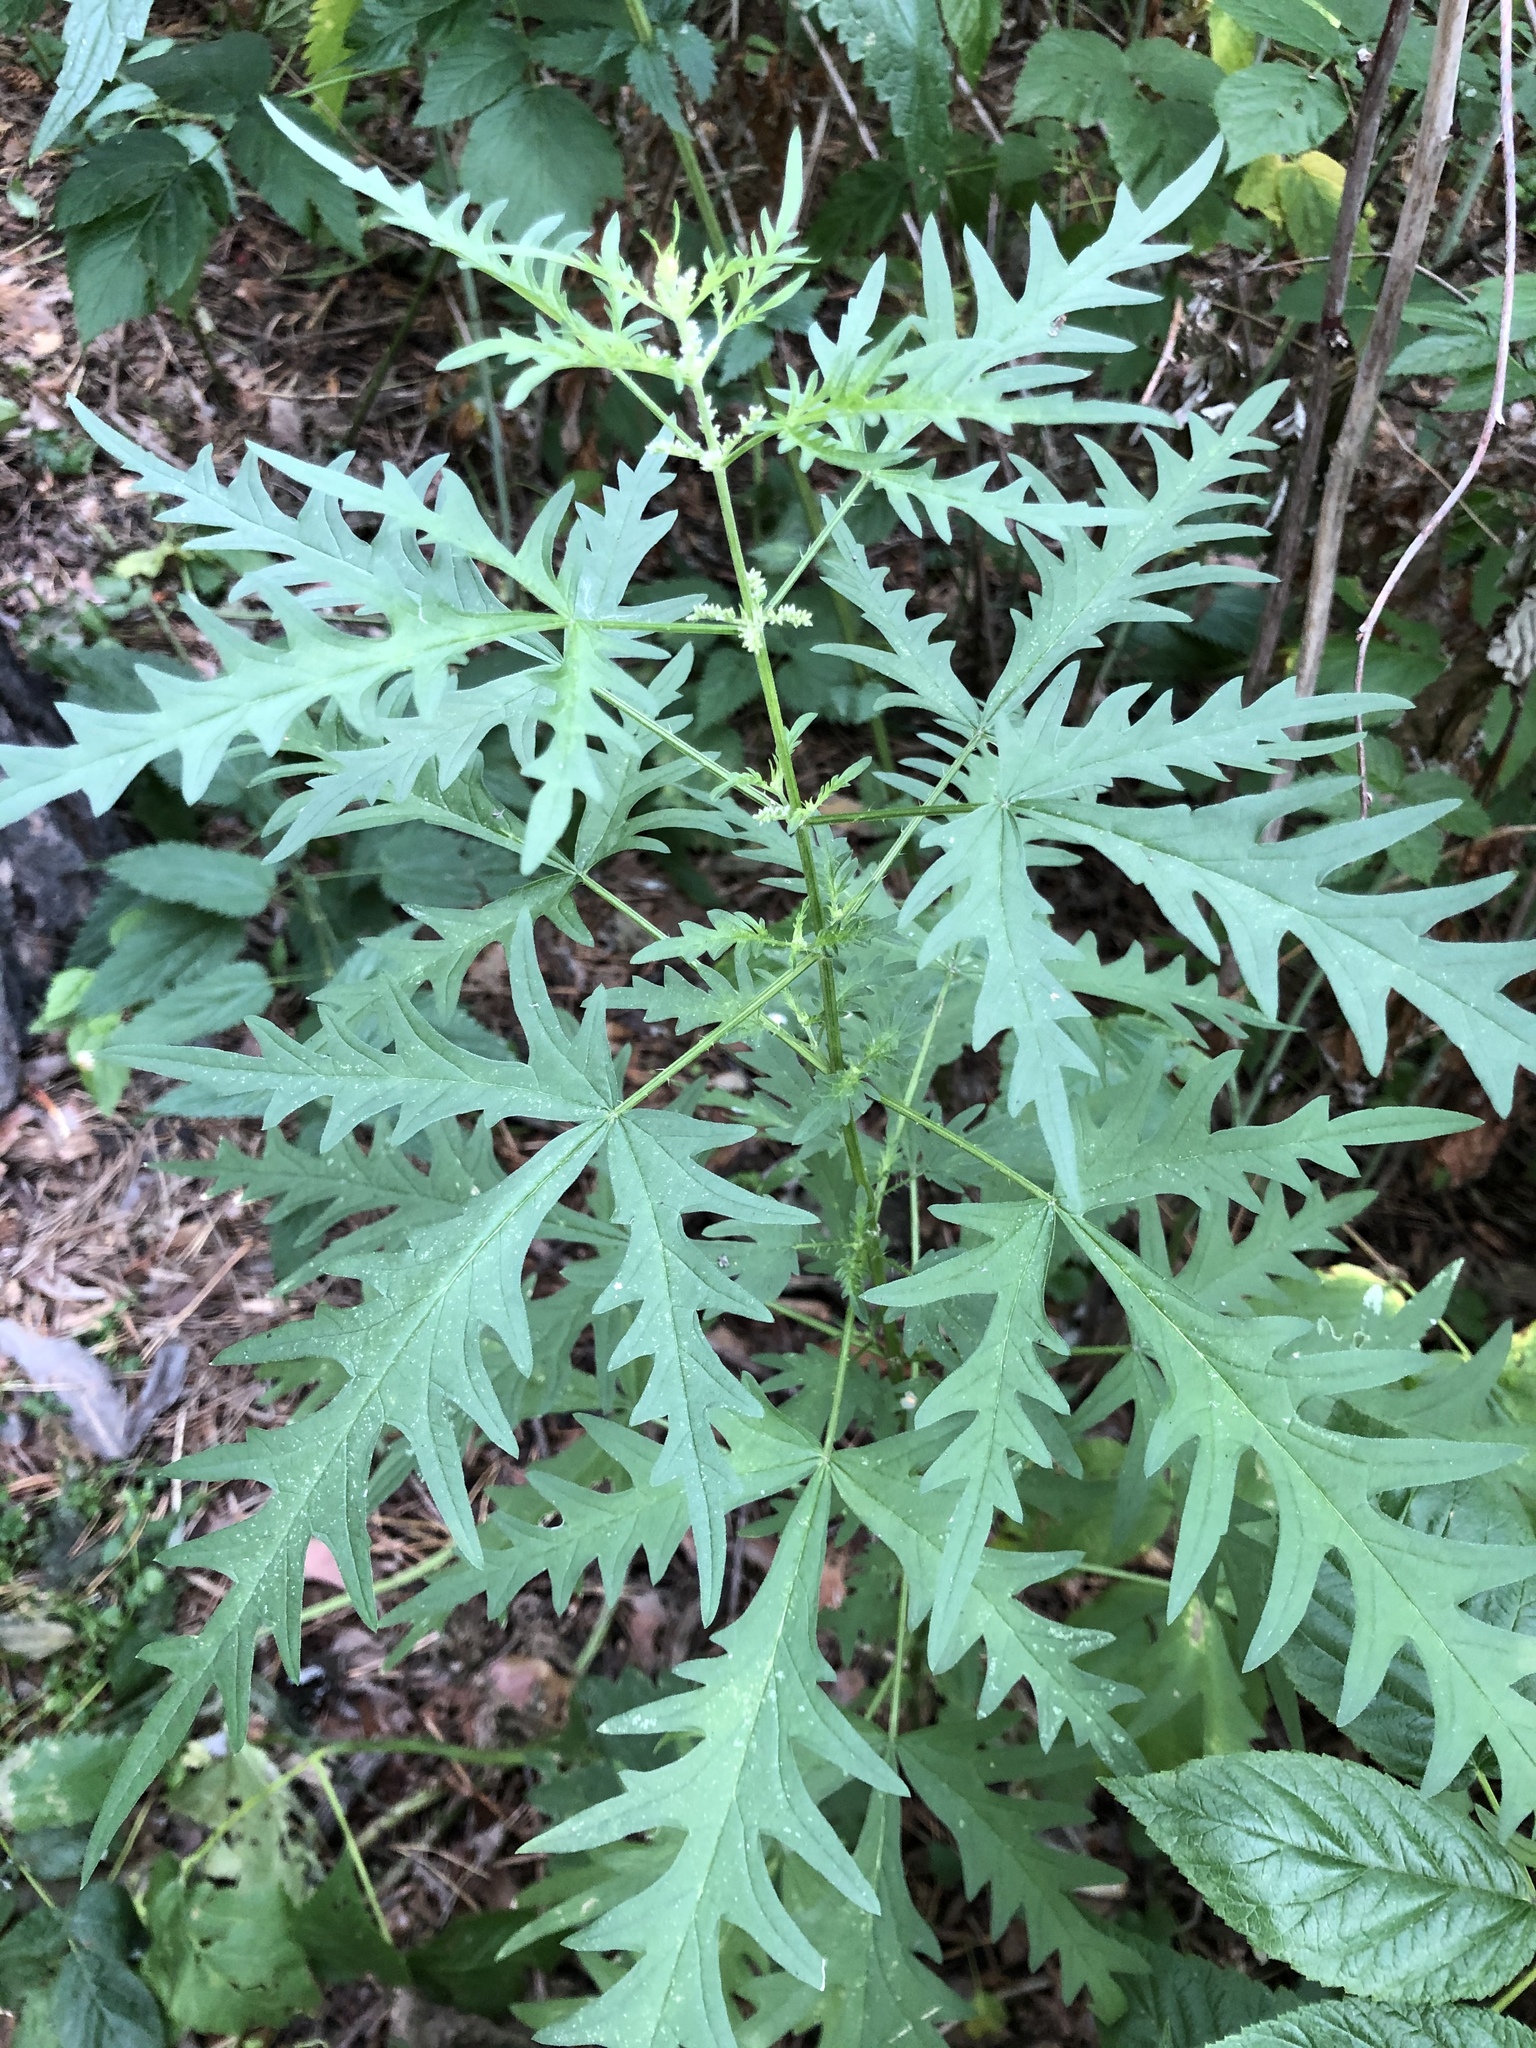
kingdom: Plantae
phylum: Tracheophyta
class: Magnoliopsida
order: Rosales
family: Urticaceae
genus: Urtica
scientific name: Urtica cannabina
